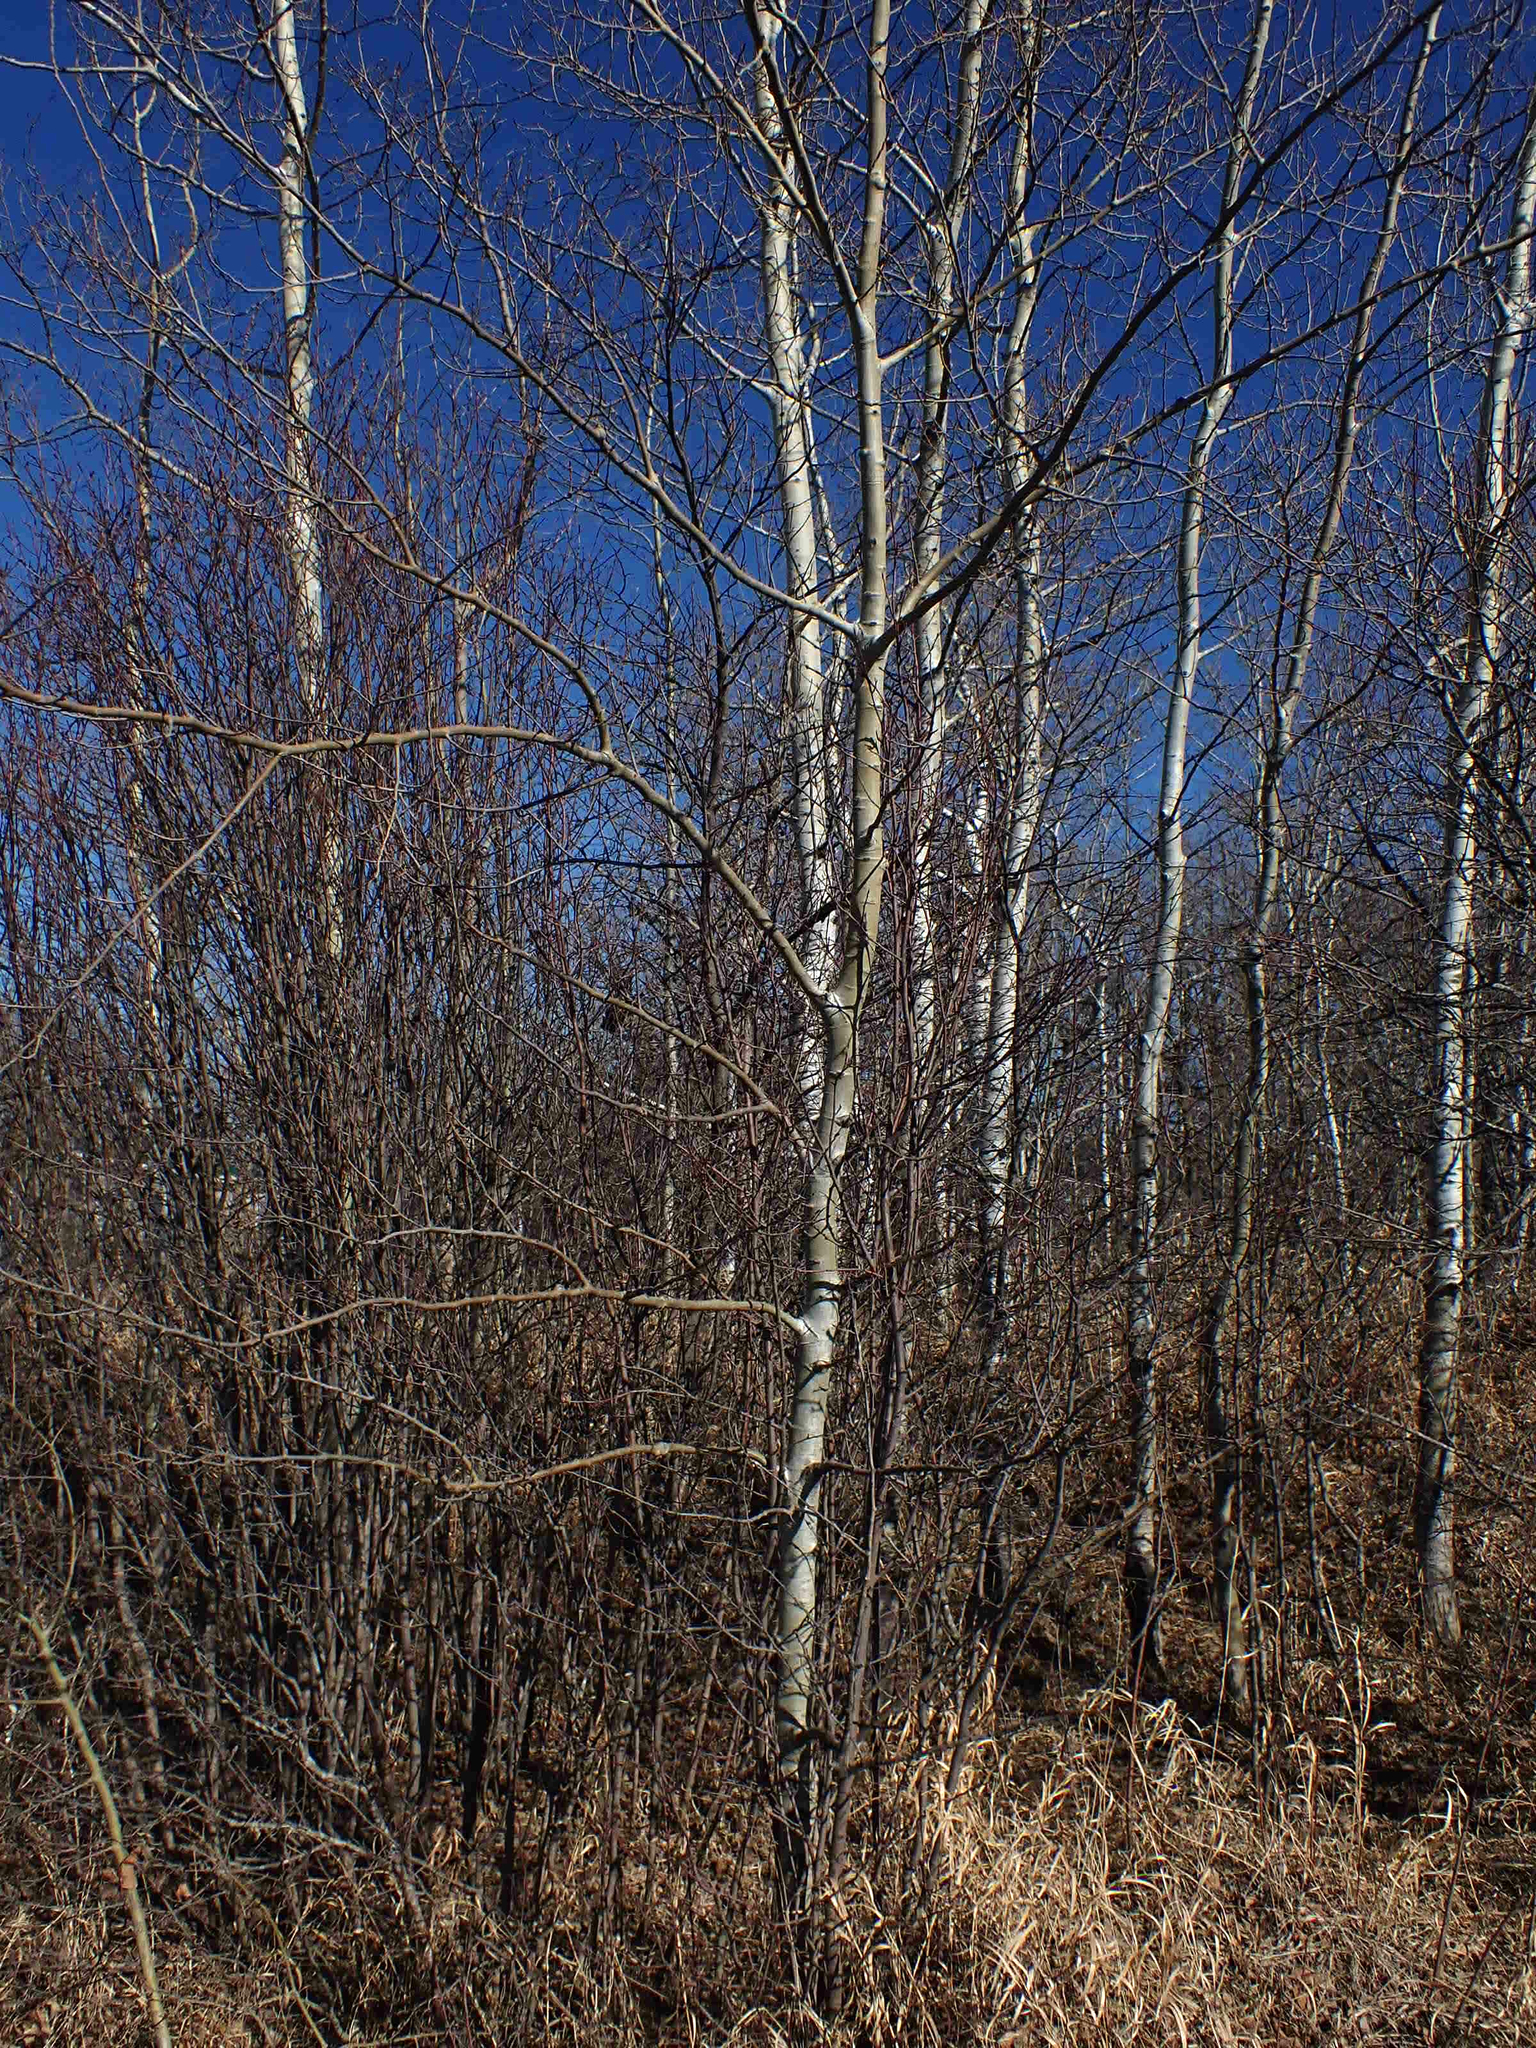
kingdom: Plantae
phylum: Tracheophyta
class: Magnoliopsida
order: Malpighiales
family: Salicaceae
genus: Populus
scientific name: Populus tremuloides
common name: Quaking aspen
